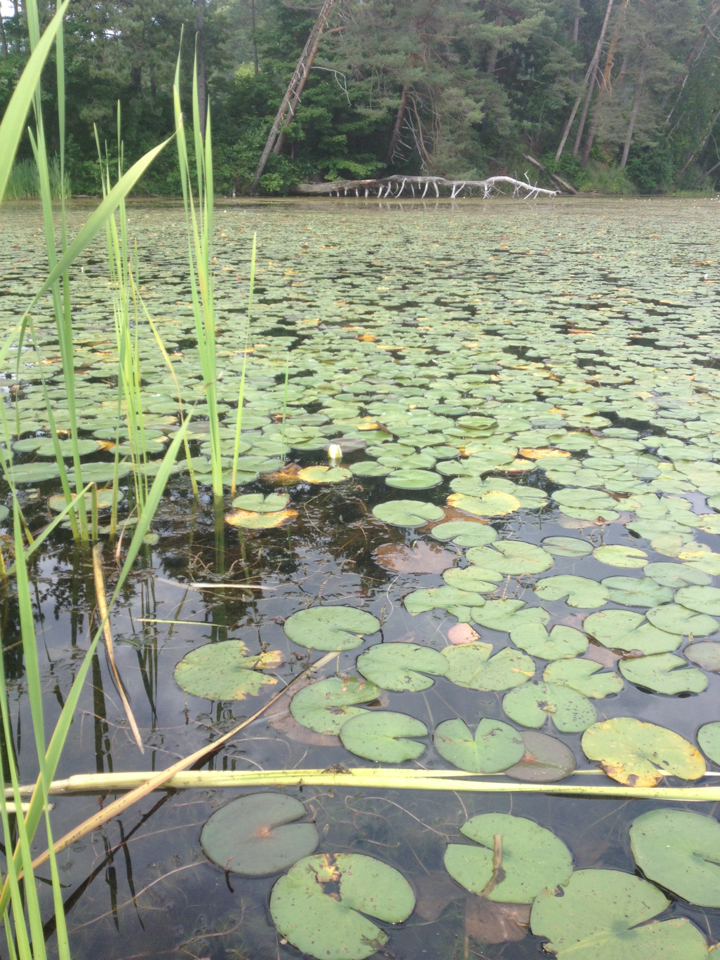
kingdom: Plantae
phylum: Tracheophyta
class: Magnoliopsida
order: Nymphaeales
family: Nymphaeaceae
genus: Nymphaea
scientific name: Nymphaea odorata
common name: Fragrant water-lily
